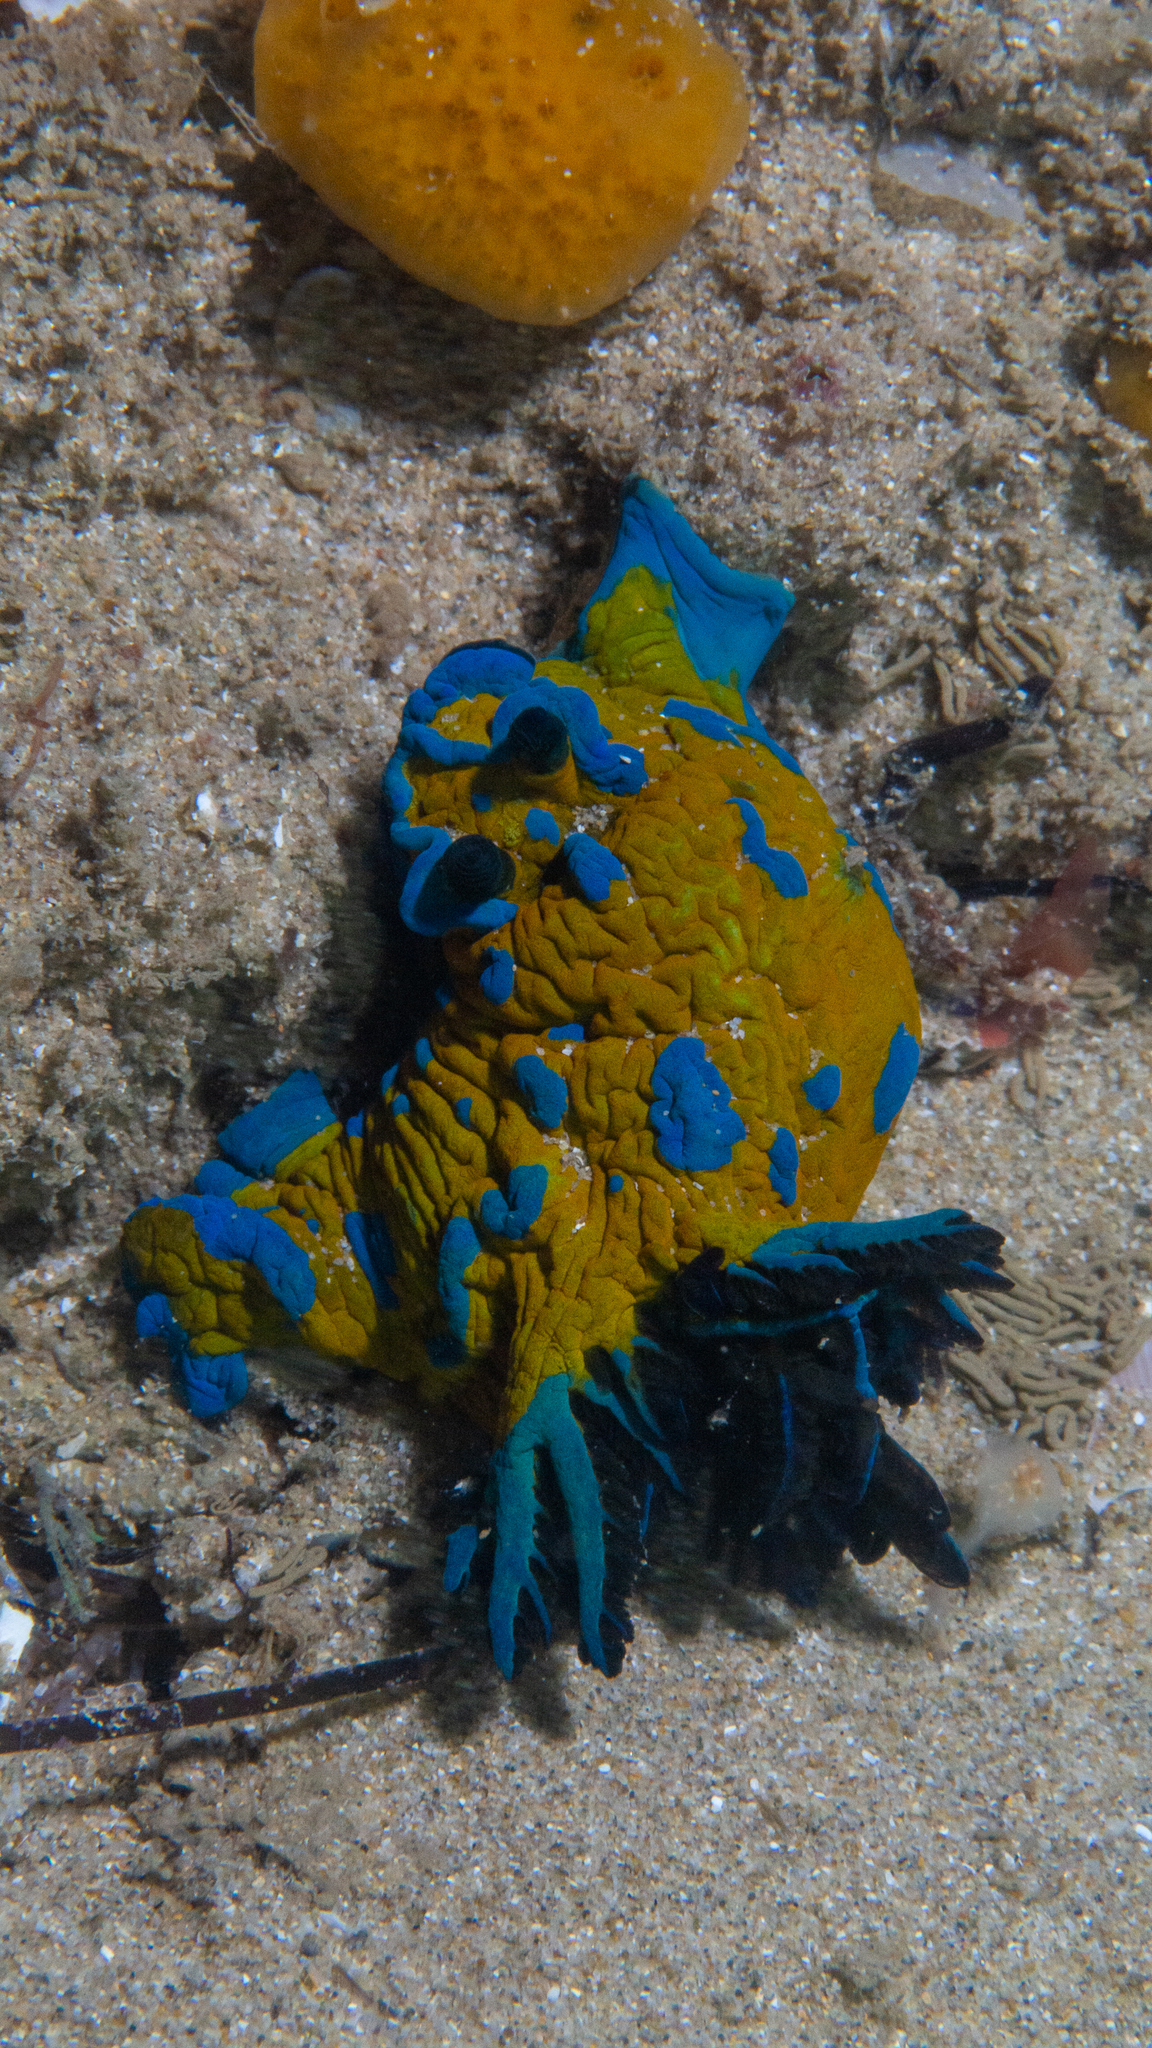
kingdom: Animalia
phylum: Mollusca
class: Gastropoda
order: Nudibranchia
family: Polyceridae
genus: Tambja
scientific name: Tambja verconis
